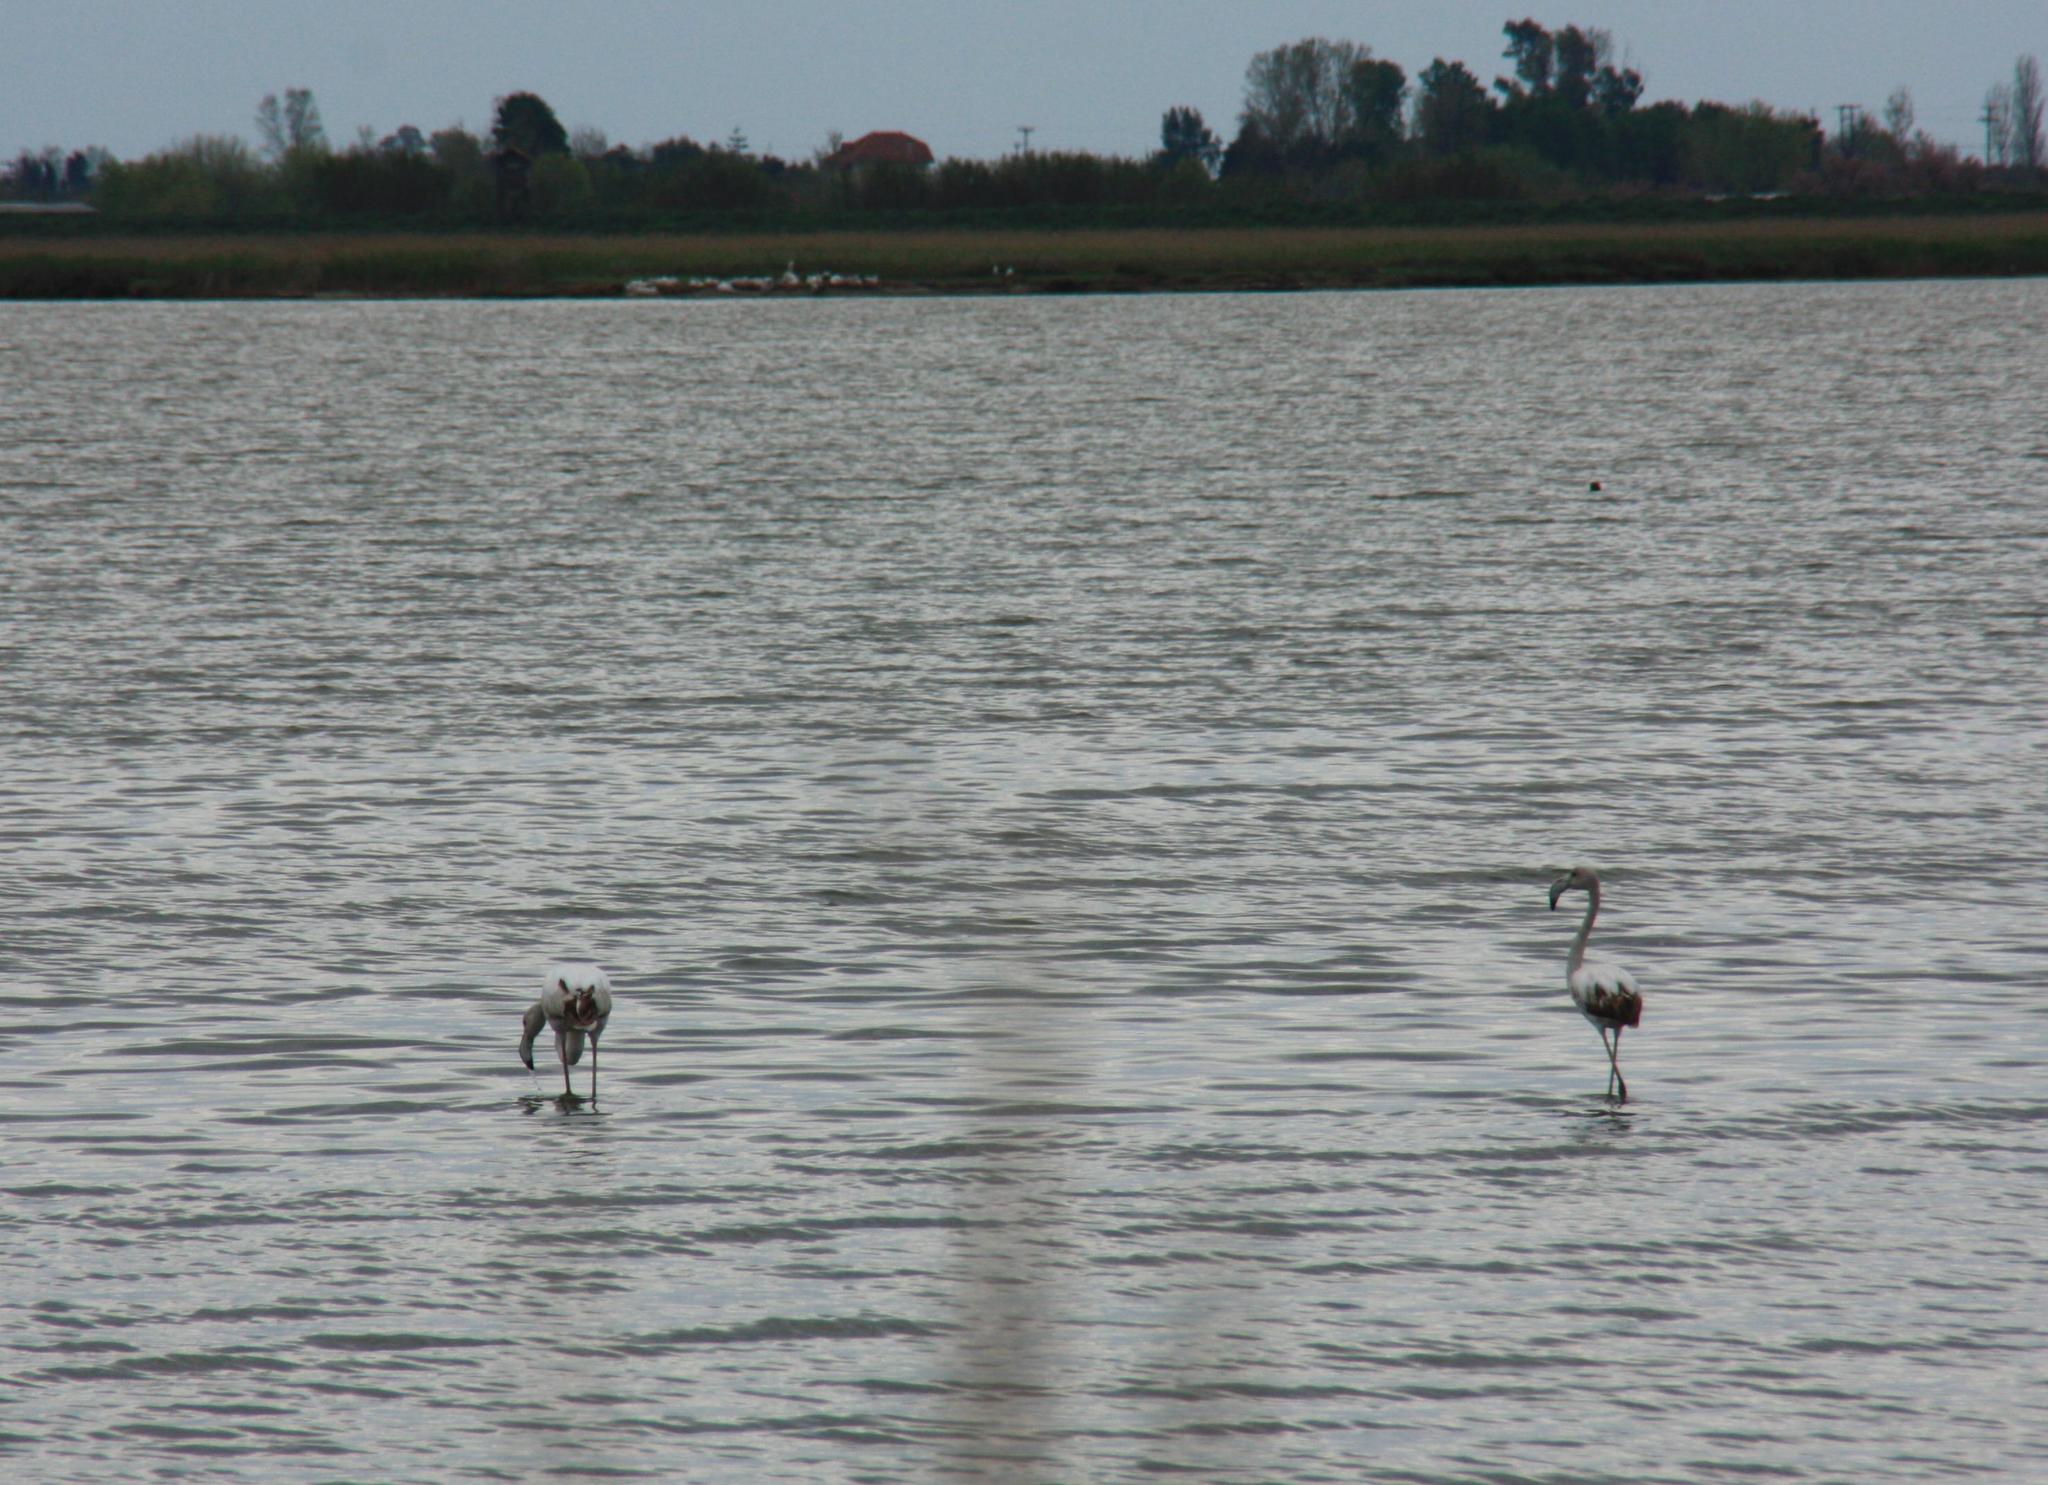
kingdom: Animalia
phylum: Chordata
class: Aves
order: Phoenicopteriformes
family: Phoenicopteridae
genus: Phoenicopterus
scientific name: Phoenicopterus roseus
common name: Greater flamingo
